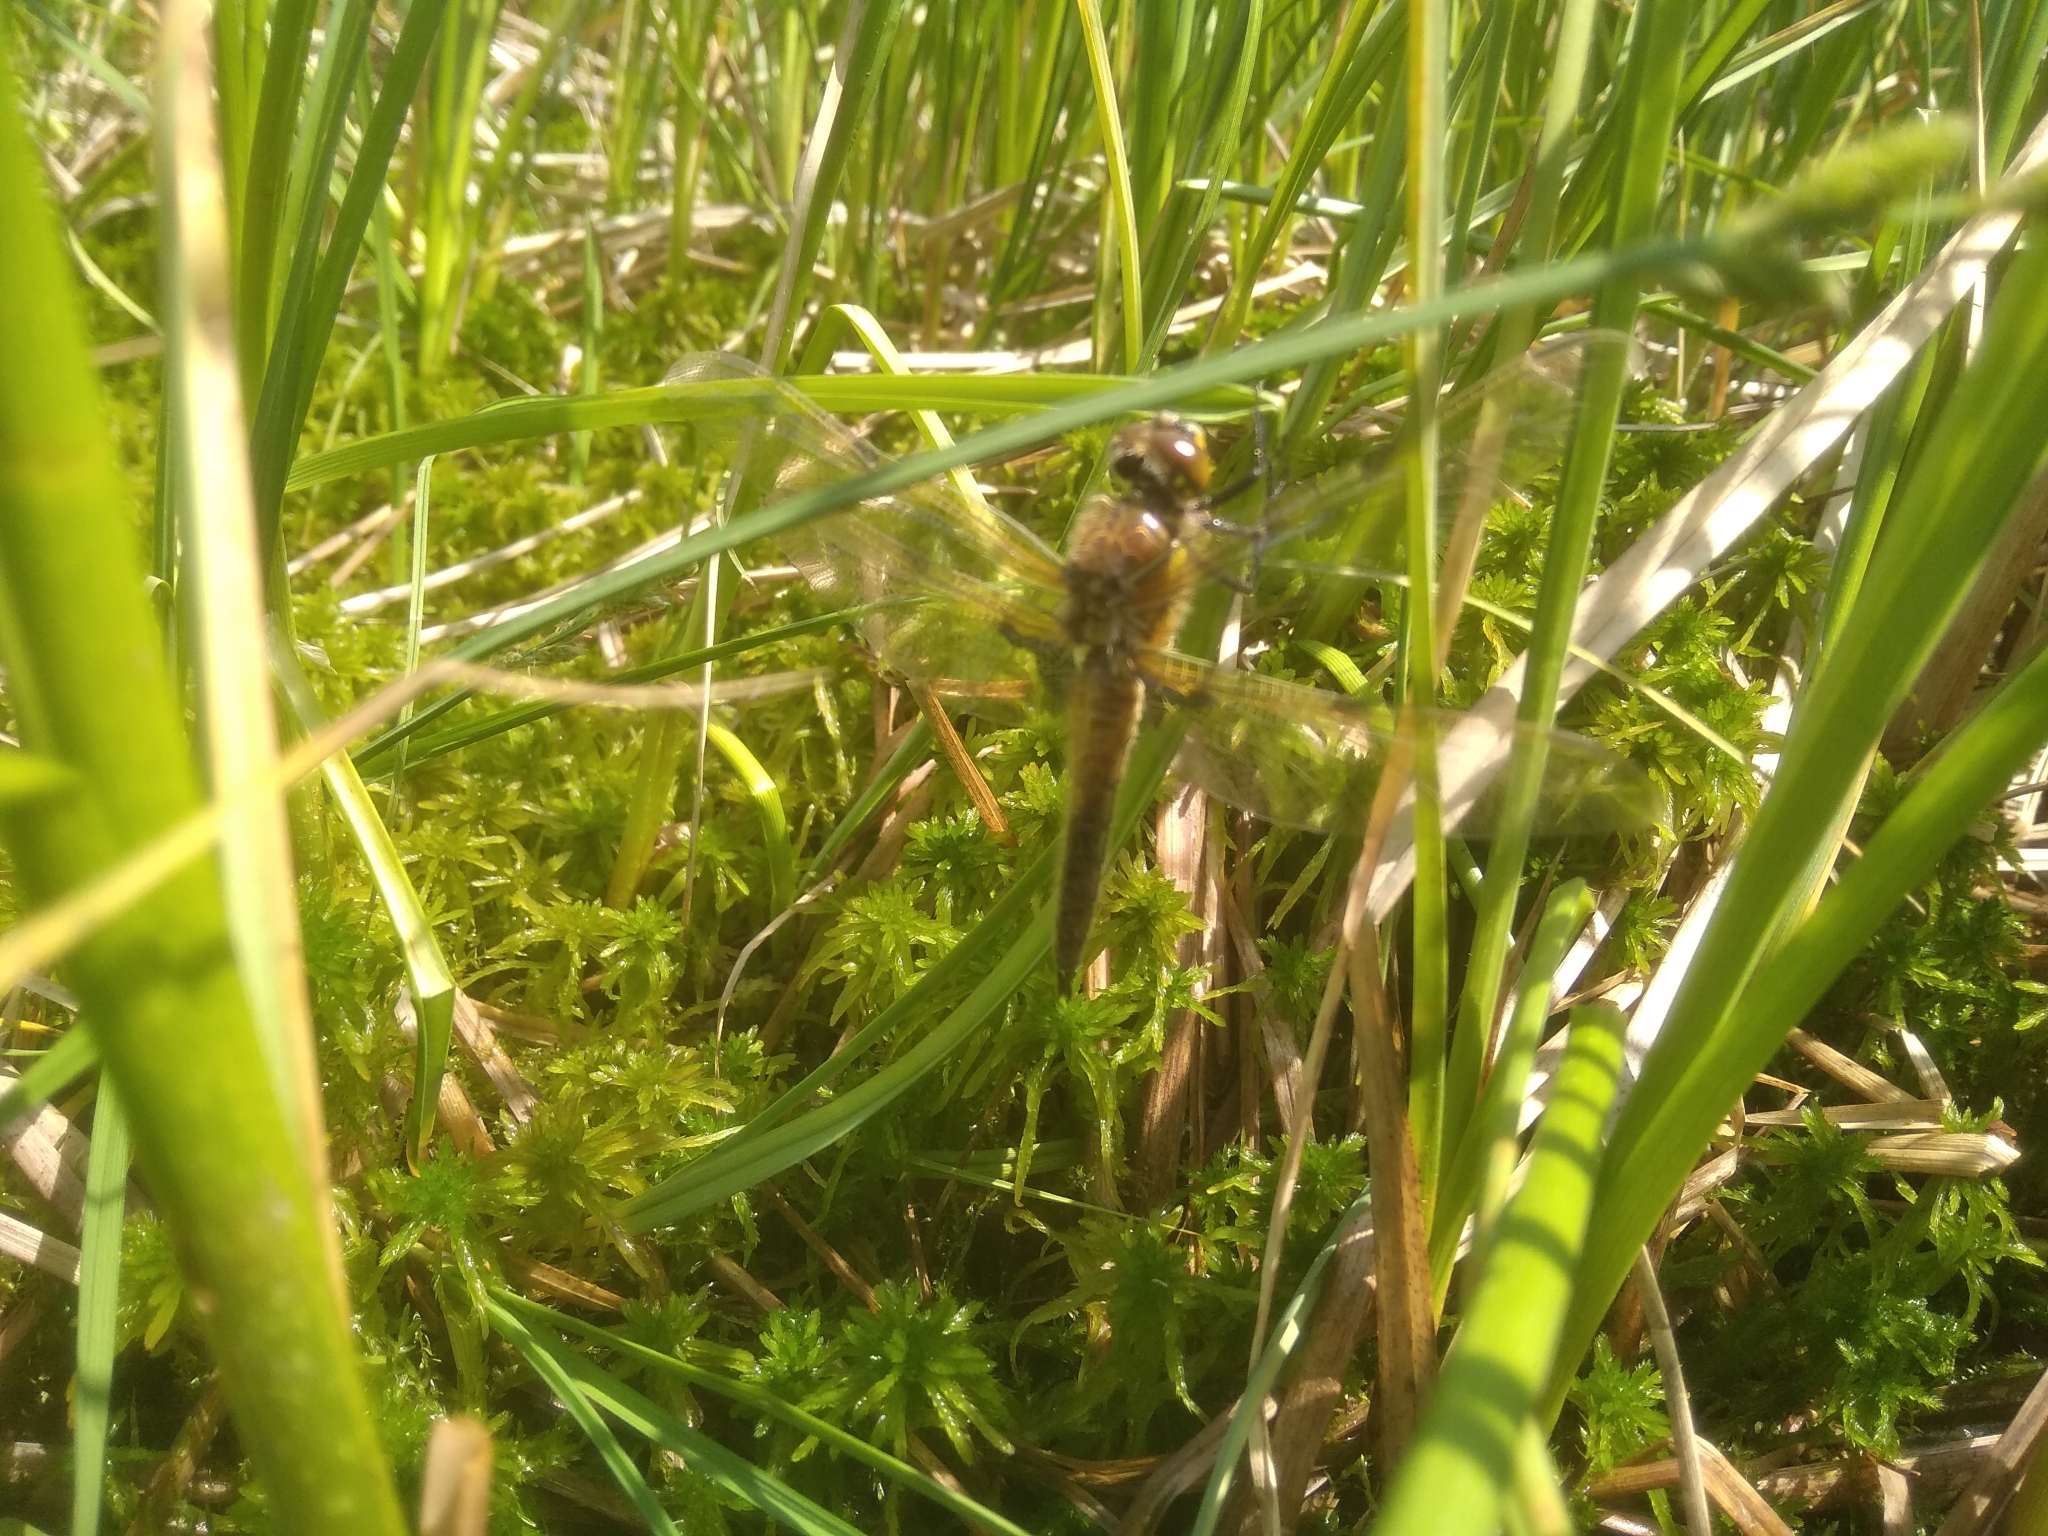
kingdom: Animalia
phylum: Arthropoda
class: Insecta
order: Odonata
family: Libellulidae
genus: Libellula
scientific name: Libellula quadrimaculata
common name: Four-spotted chaser
